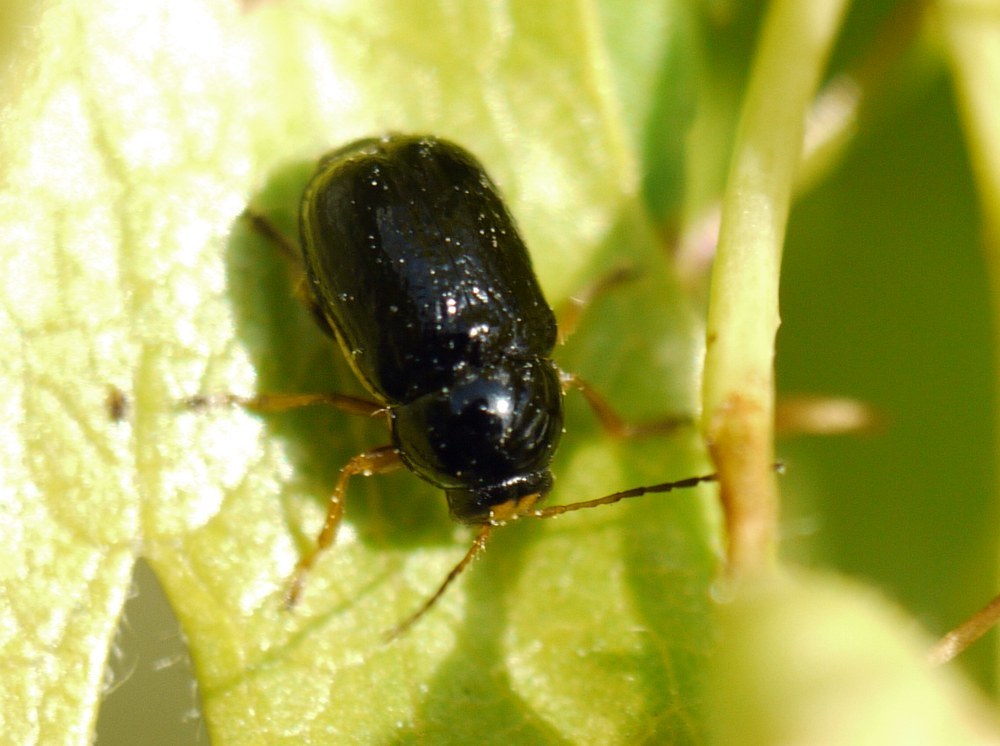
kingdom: Animalia
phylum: Arthropoda
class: Insecta
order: Coleoptera
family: Chrysomelidae
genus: Cryptocephalus
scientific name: Cryptocephalus bameuli
